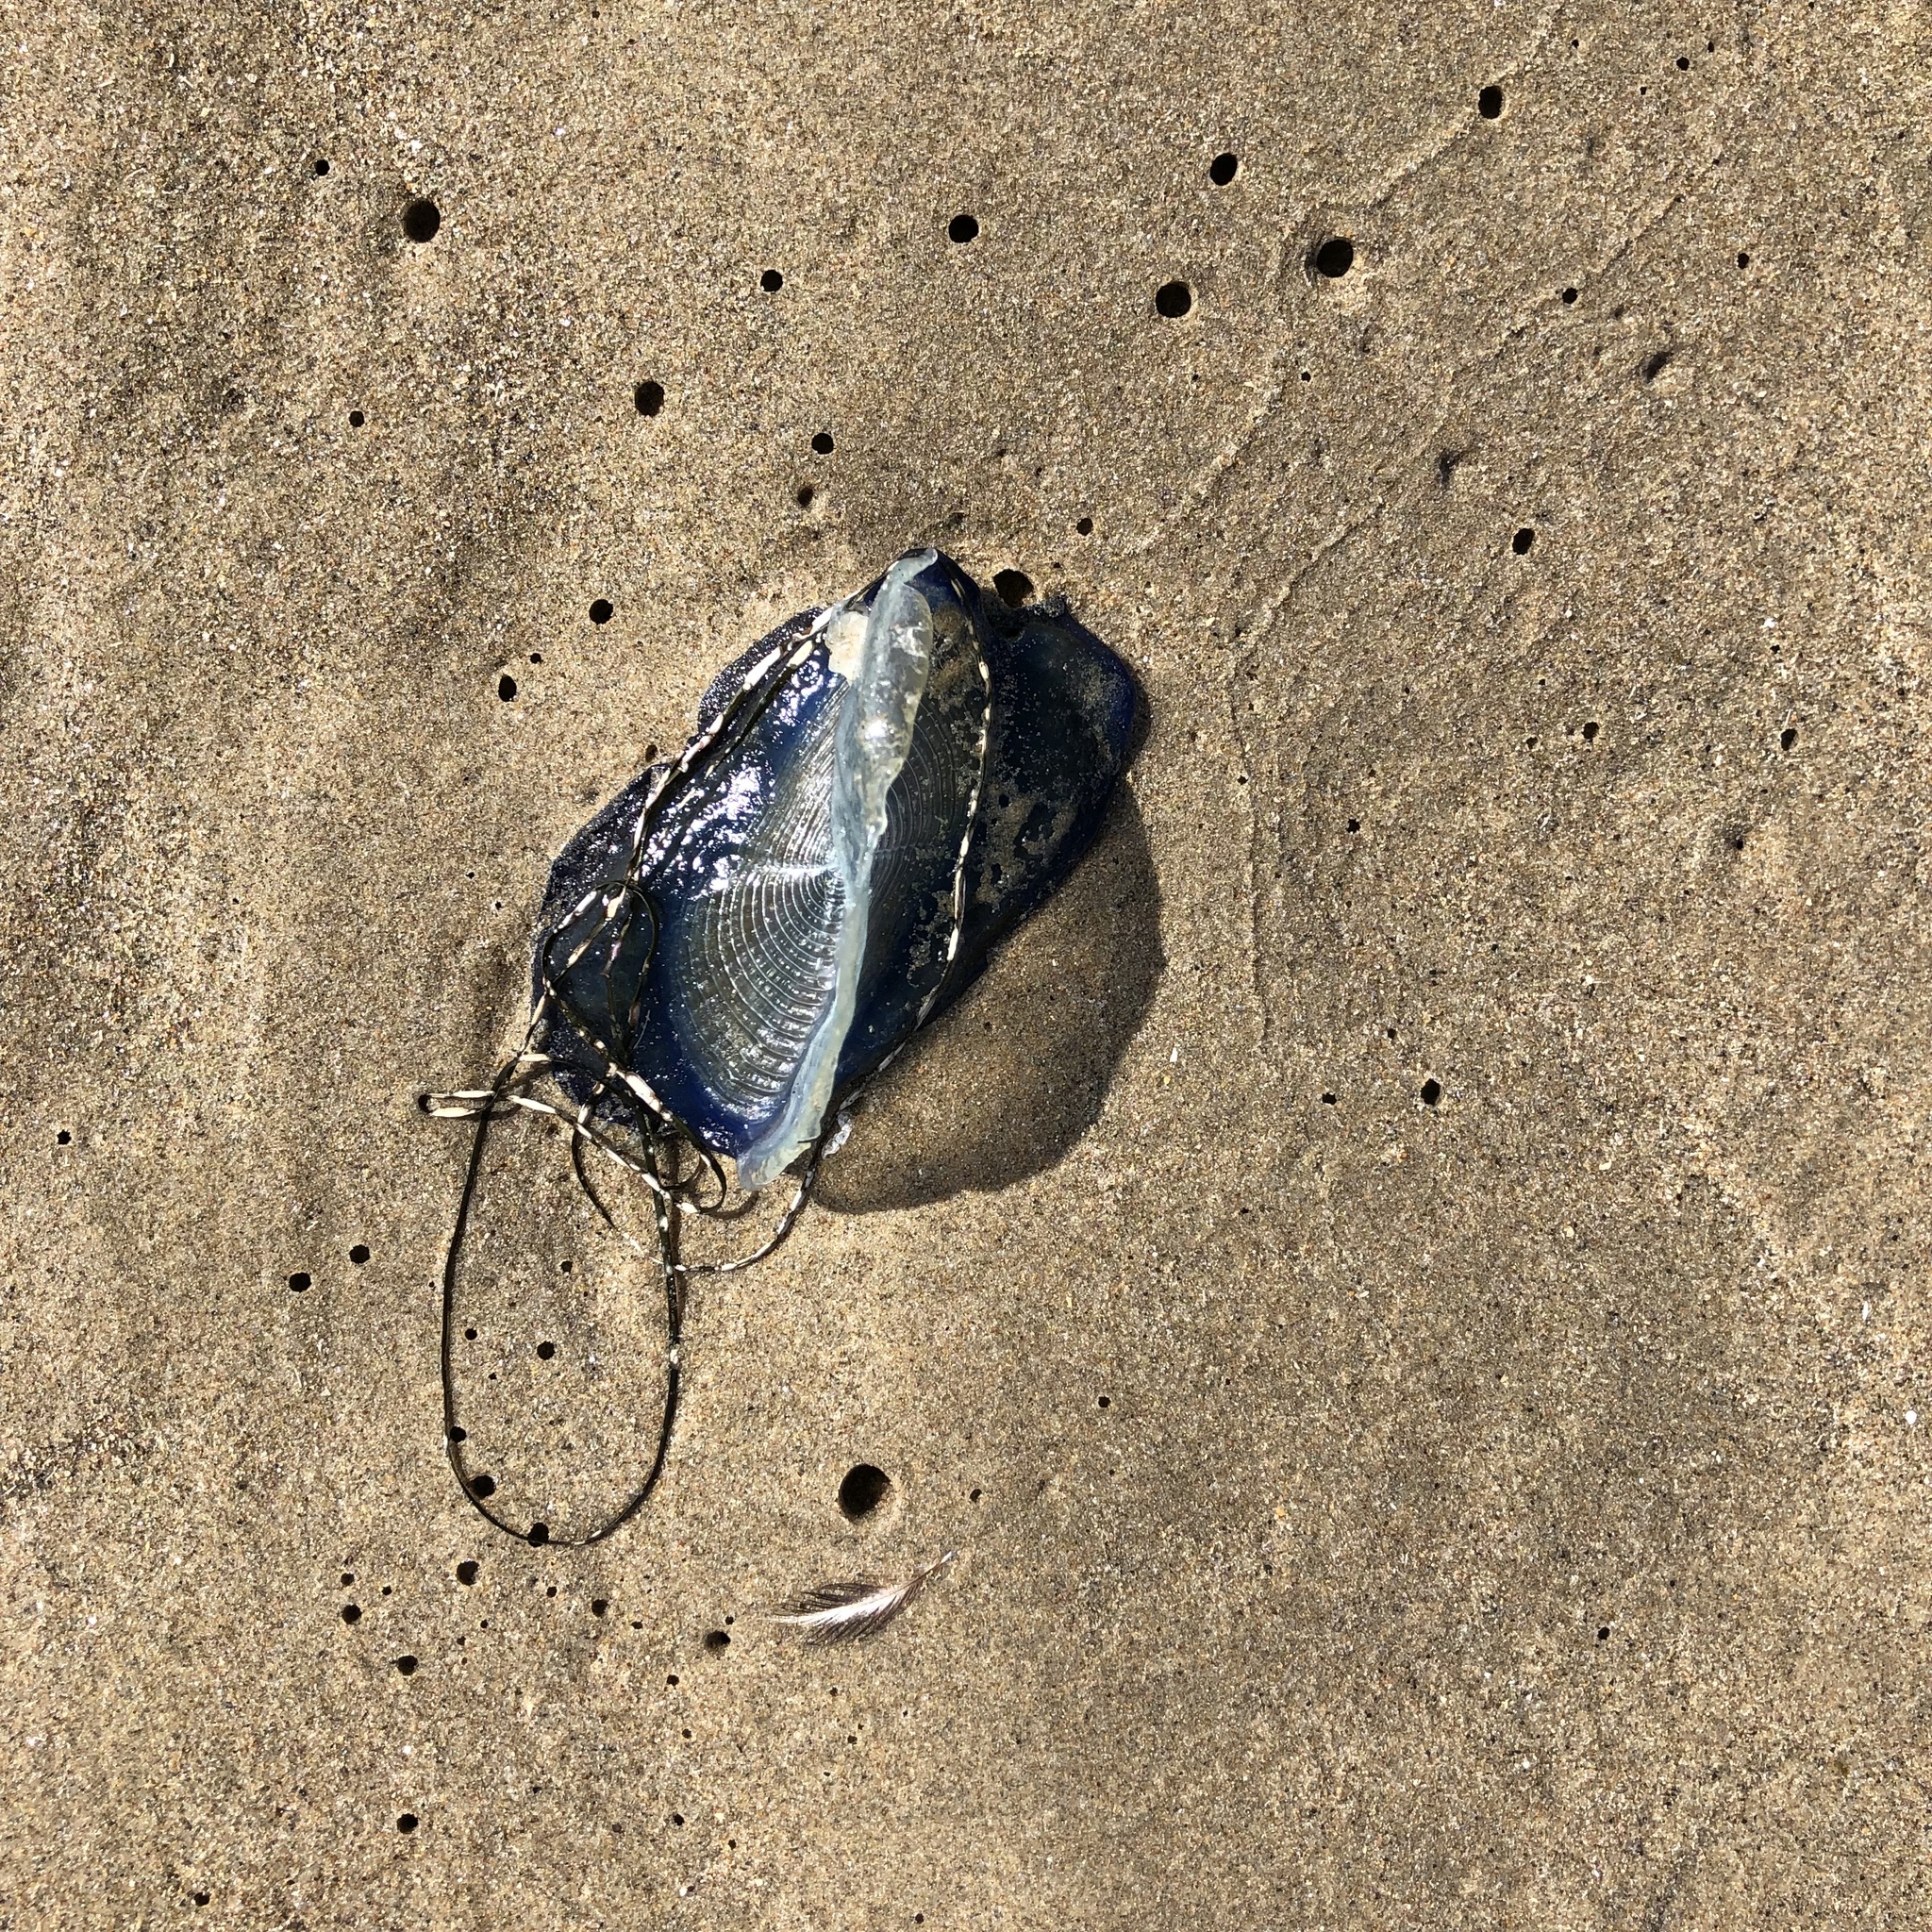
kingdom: Animalia
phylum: Cnidaria
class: Hydrozoa
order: Anthoathecata
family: Porpitidae
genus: Velella
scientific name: Velella velella
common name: By-the-wind-sailor
